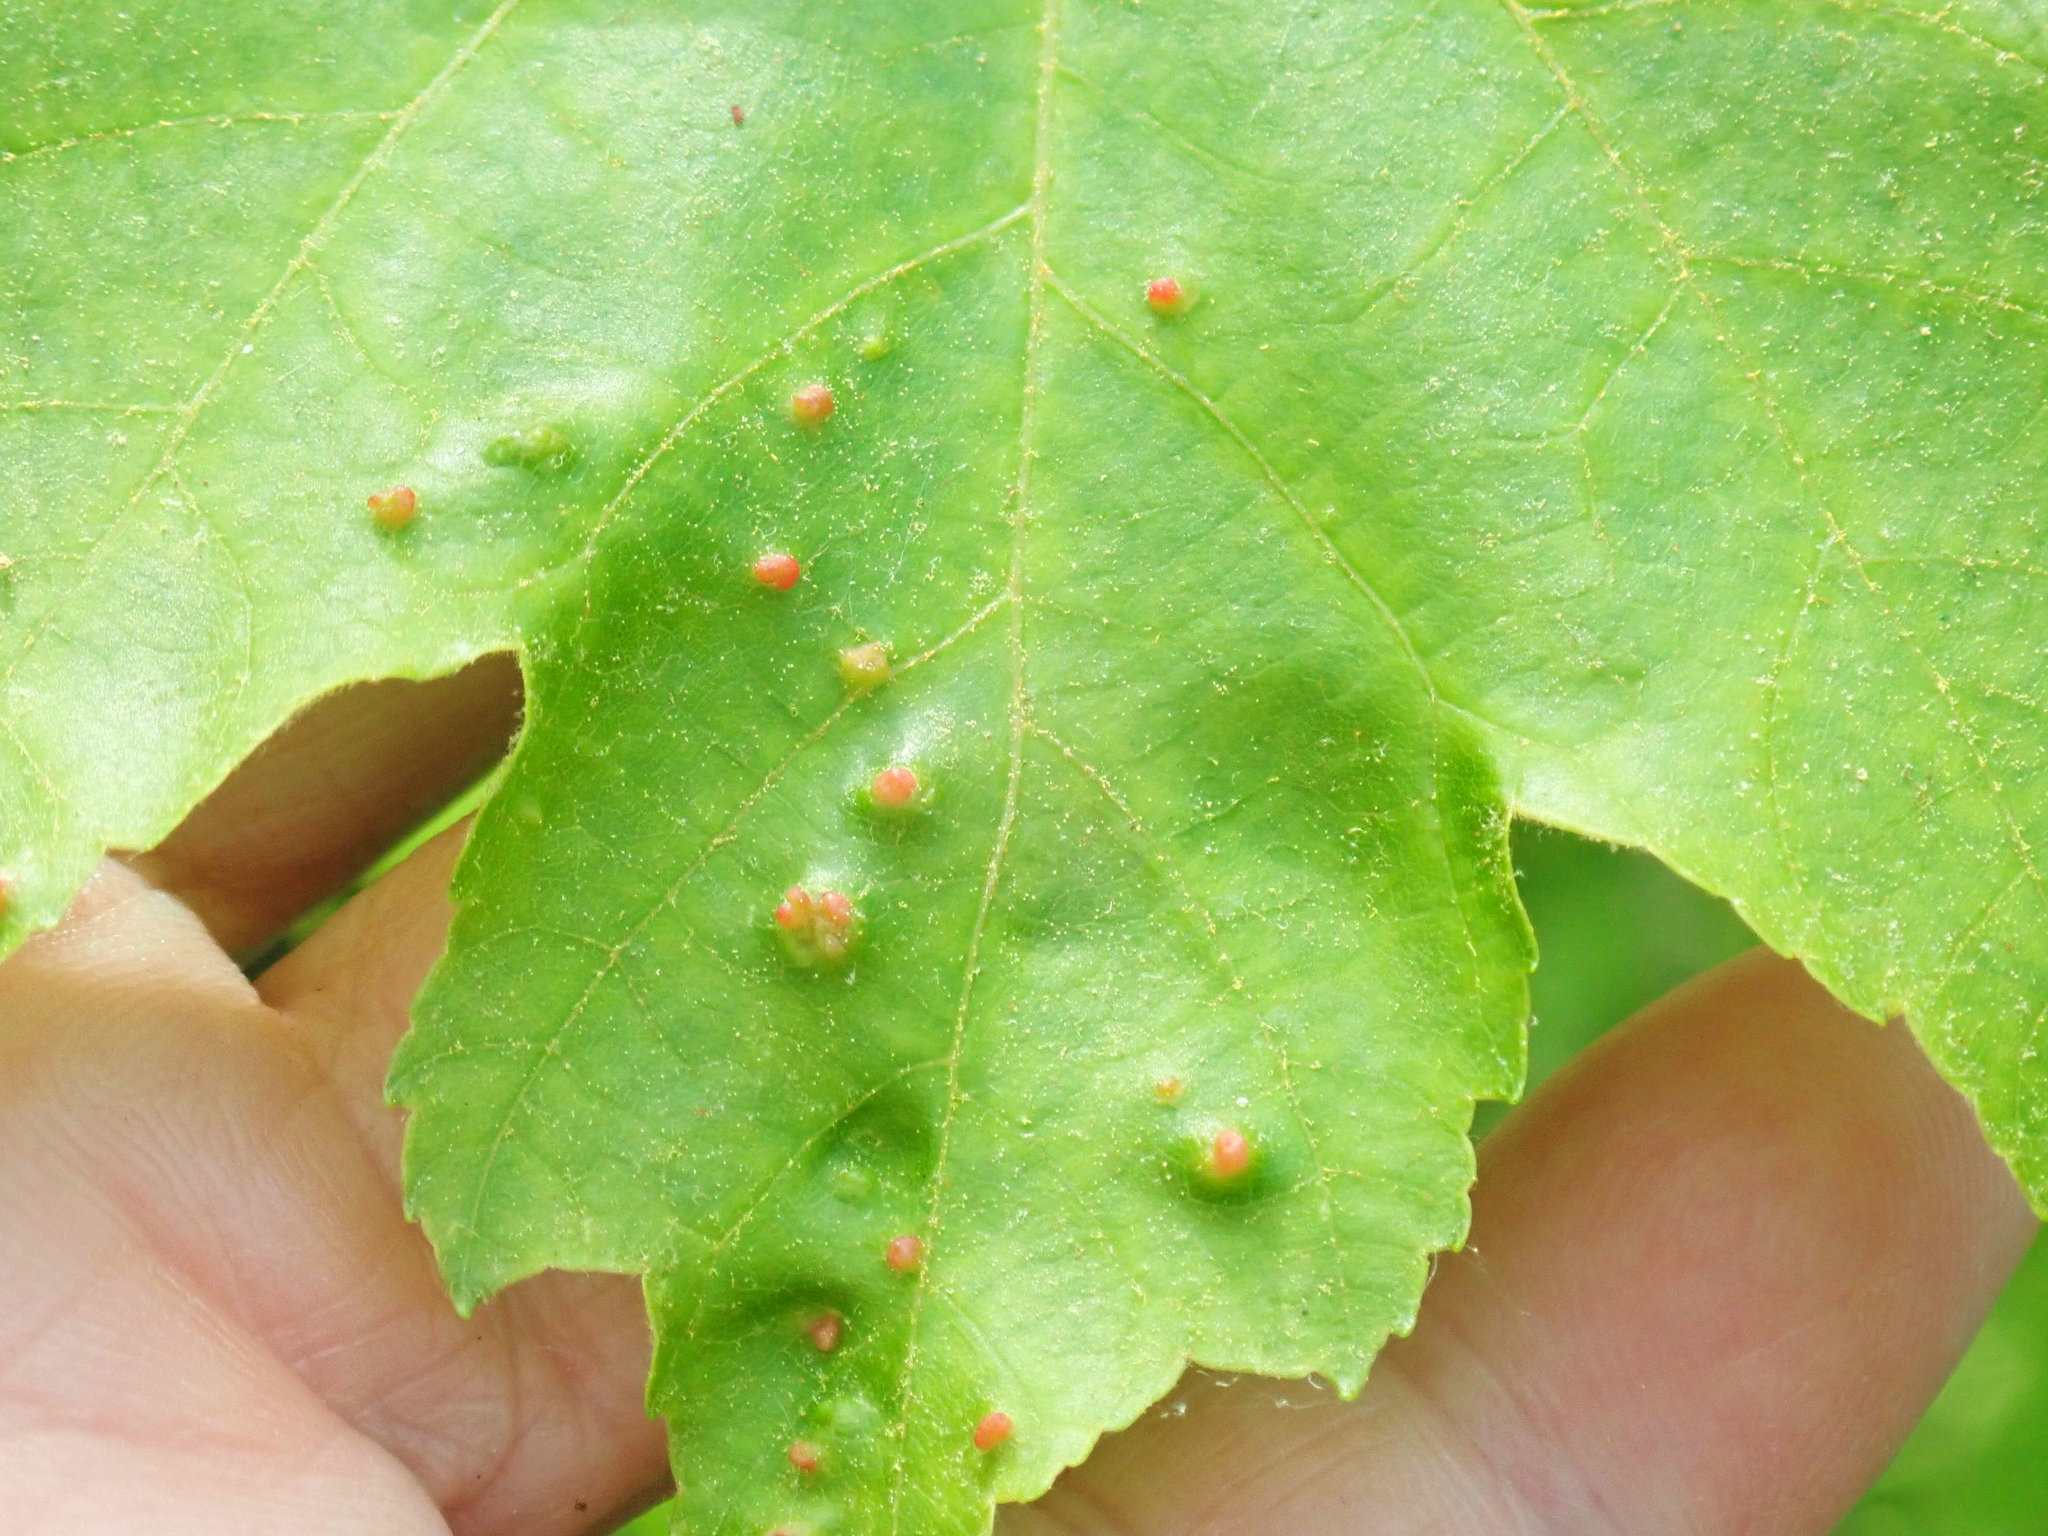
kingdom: Animalia
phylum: Arthropoda
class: Arachnida
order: Trombidiformes
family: Eriophyidae
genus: Vasates
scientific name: Vasates quadripedes
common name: Maple bladder gall mite
